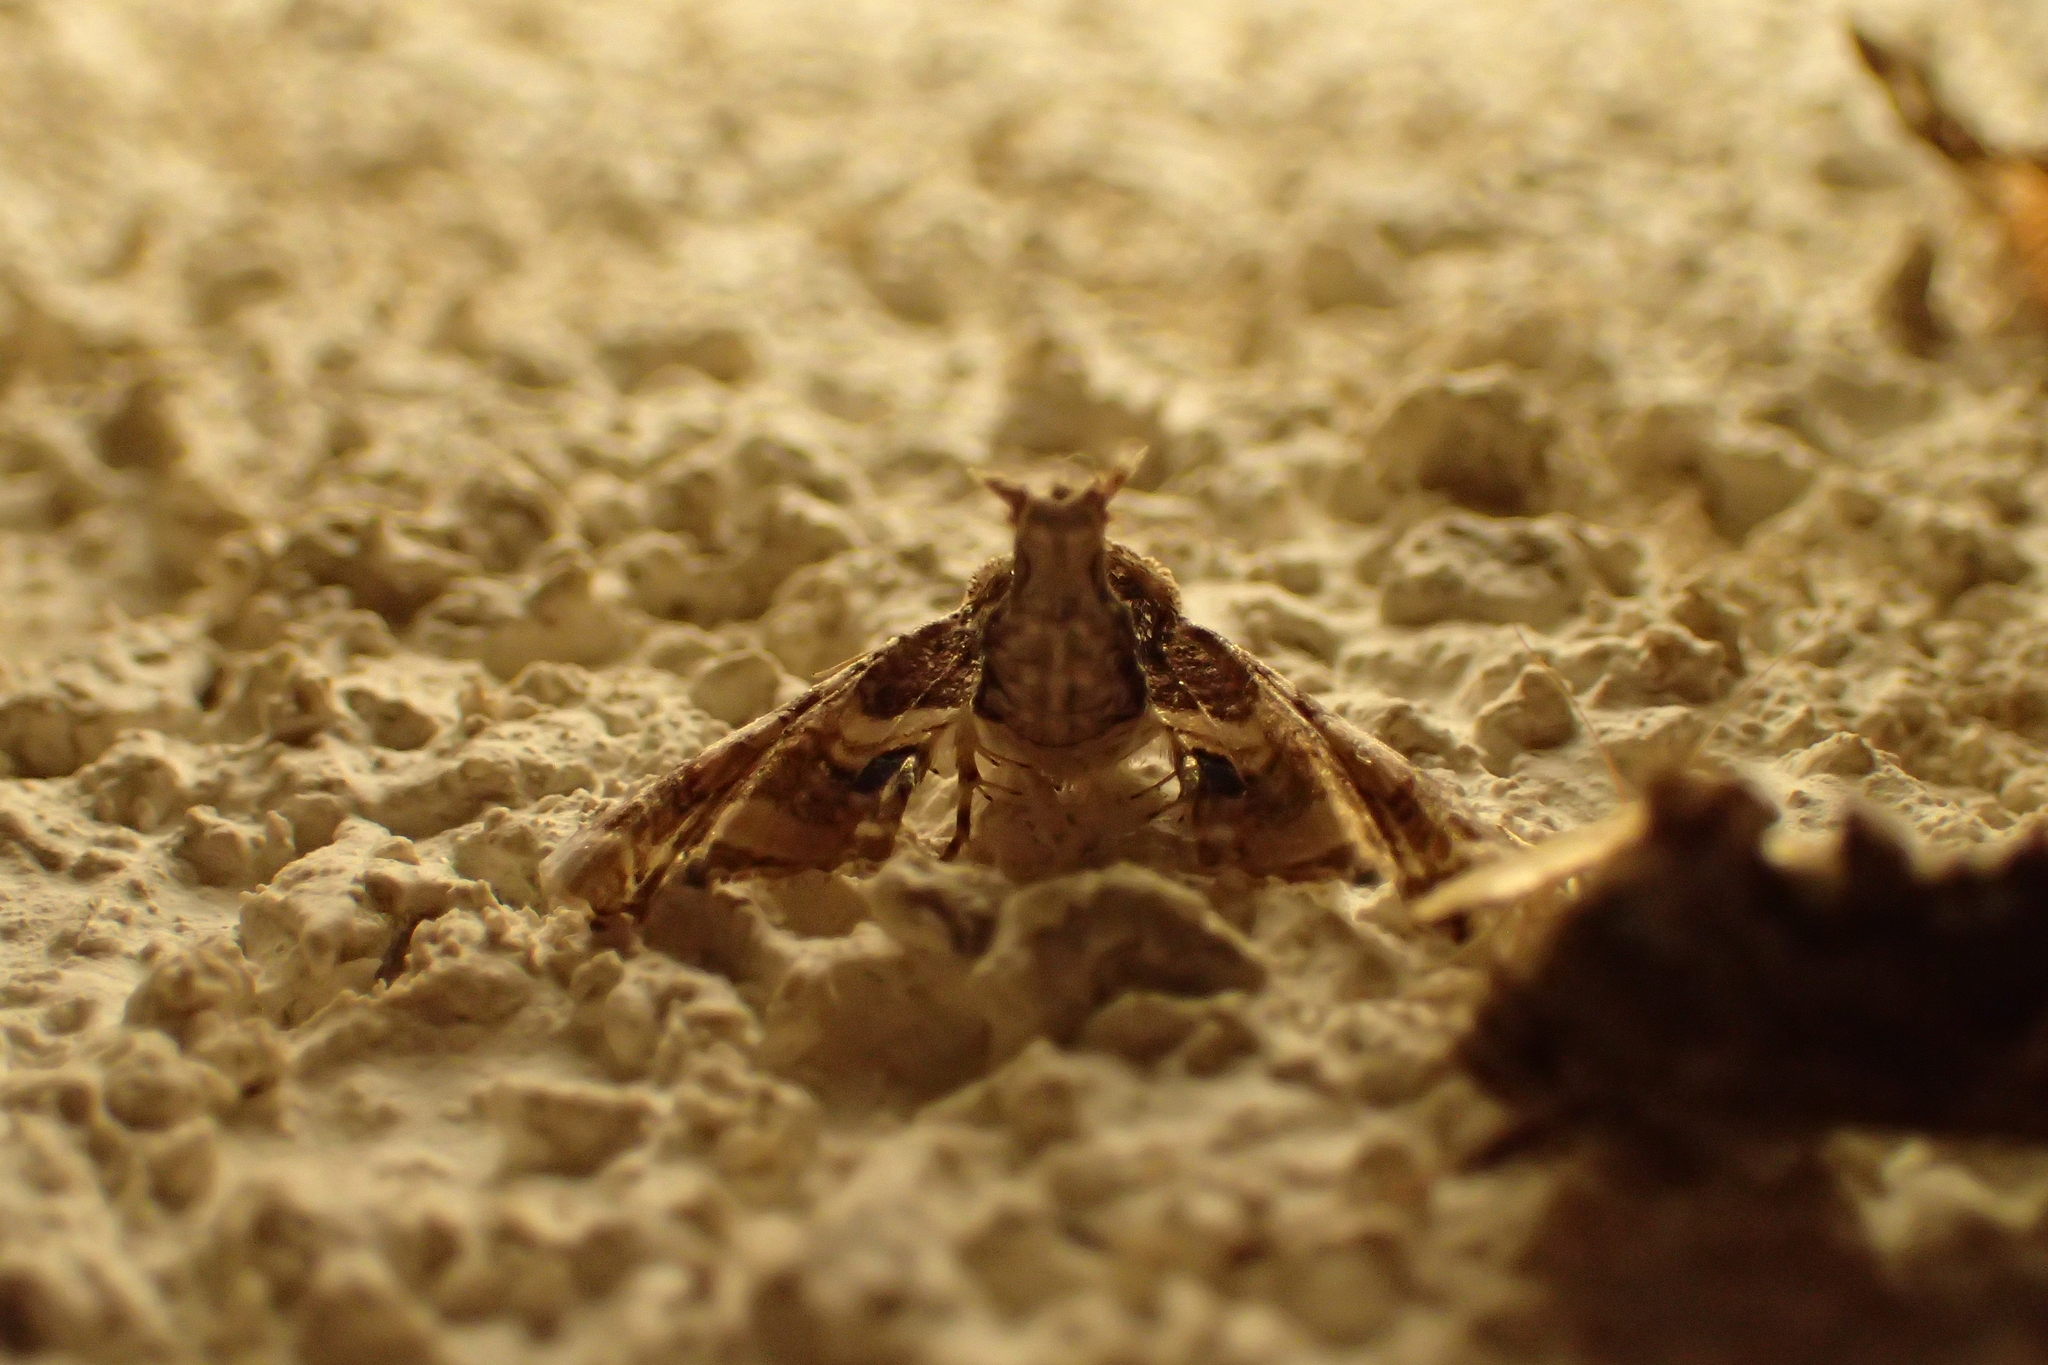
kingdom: Animalia
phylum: Arthropoda
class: Insecta
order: Lepidoptera
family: Euteliidae
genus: Eutelia
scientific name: Eutelia adulatrix
